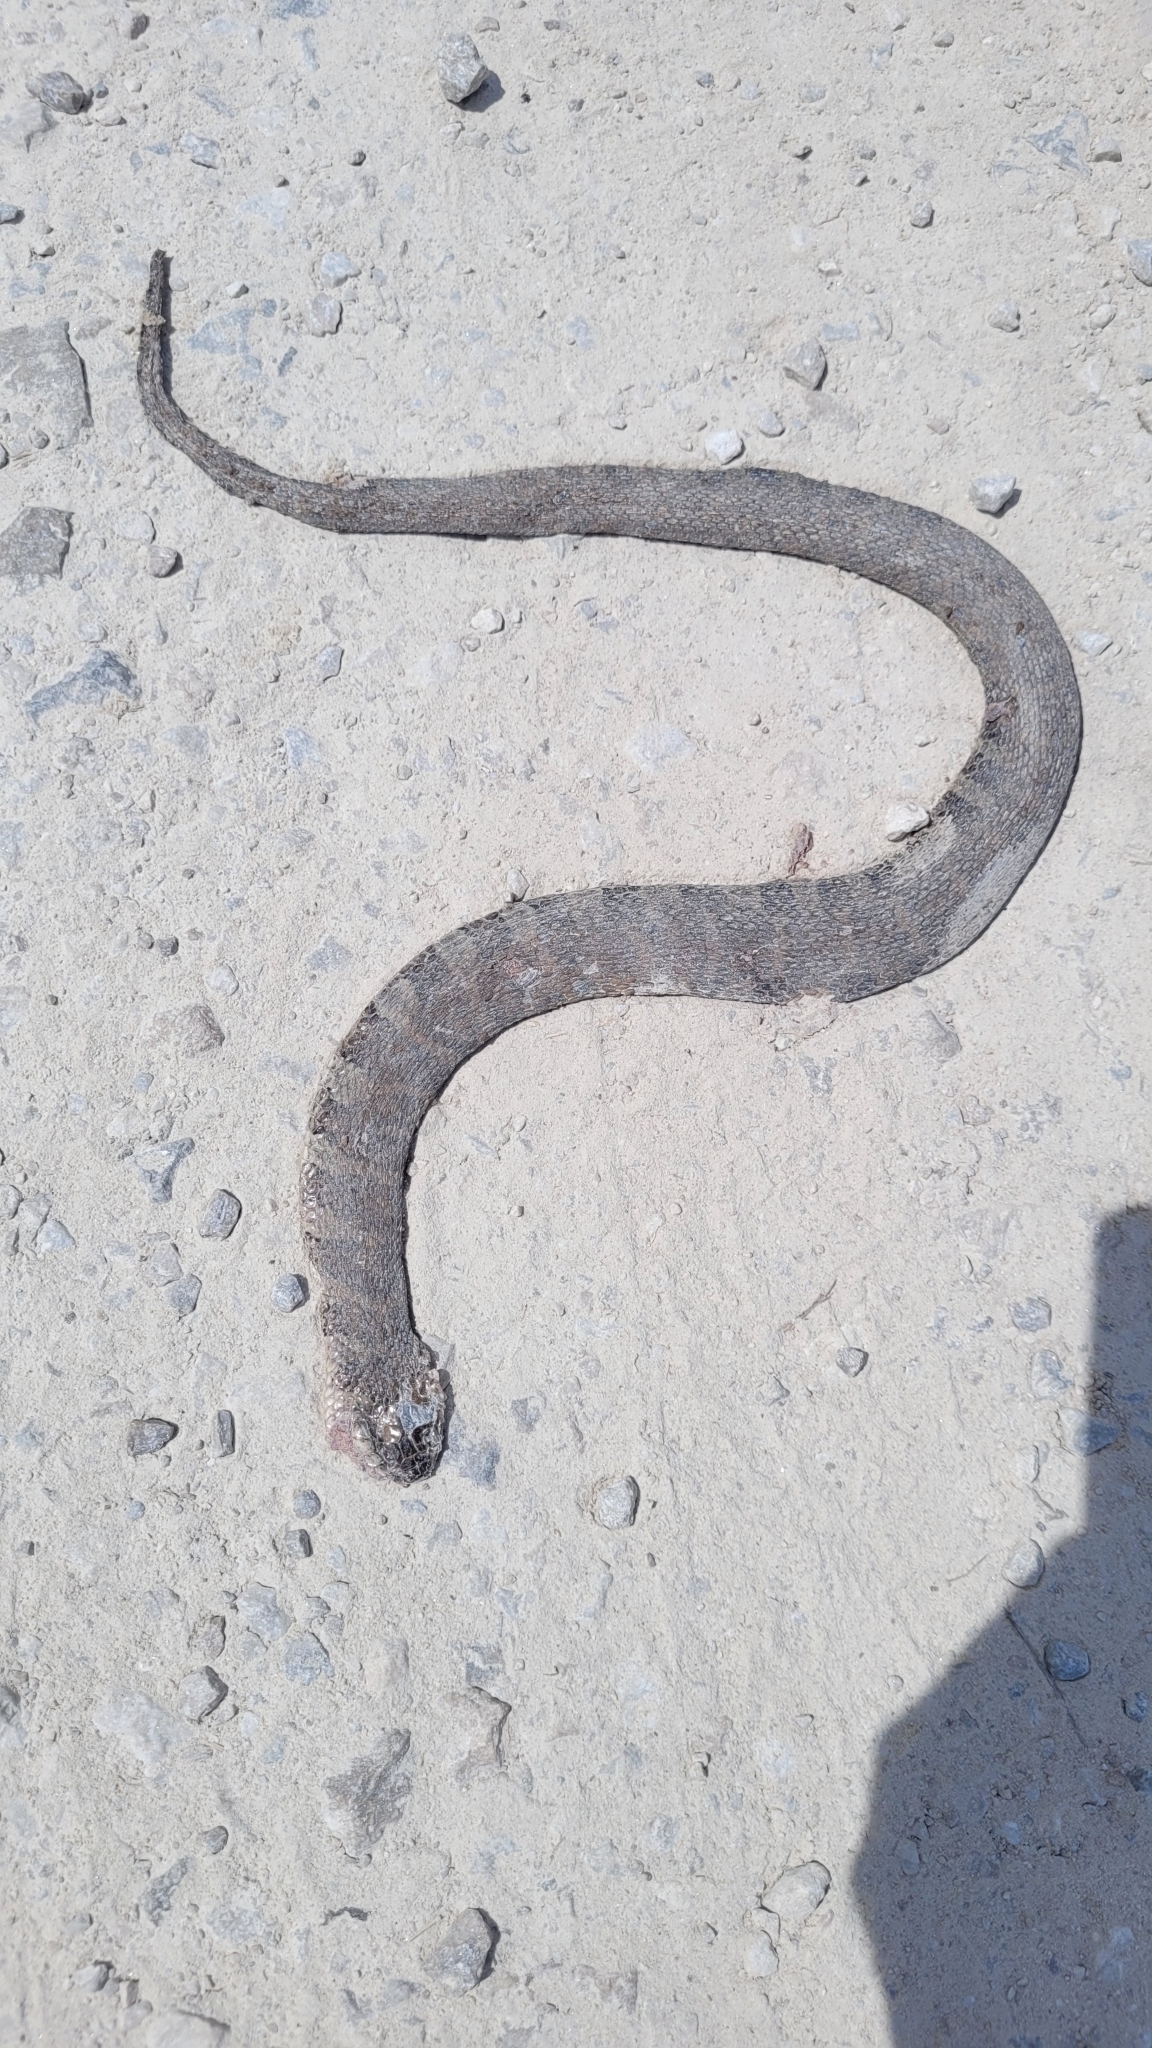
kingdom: Animalia
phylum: Chordata
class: Squamata
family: Colubridae
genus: Nerodia
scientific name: Nerodia sipedon
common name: Northern water snake
